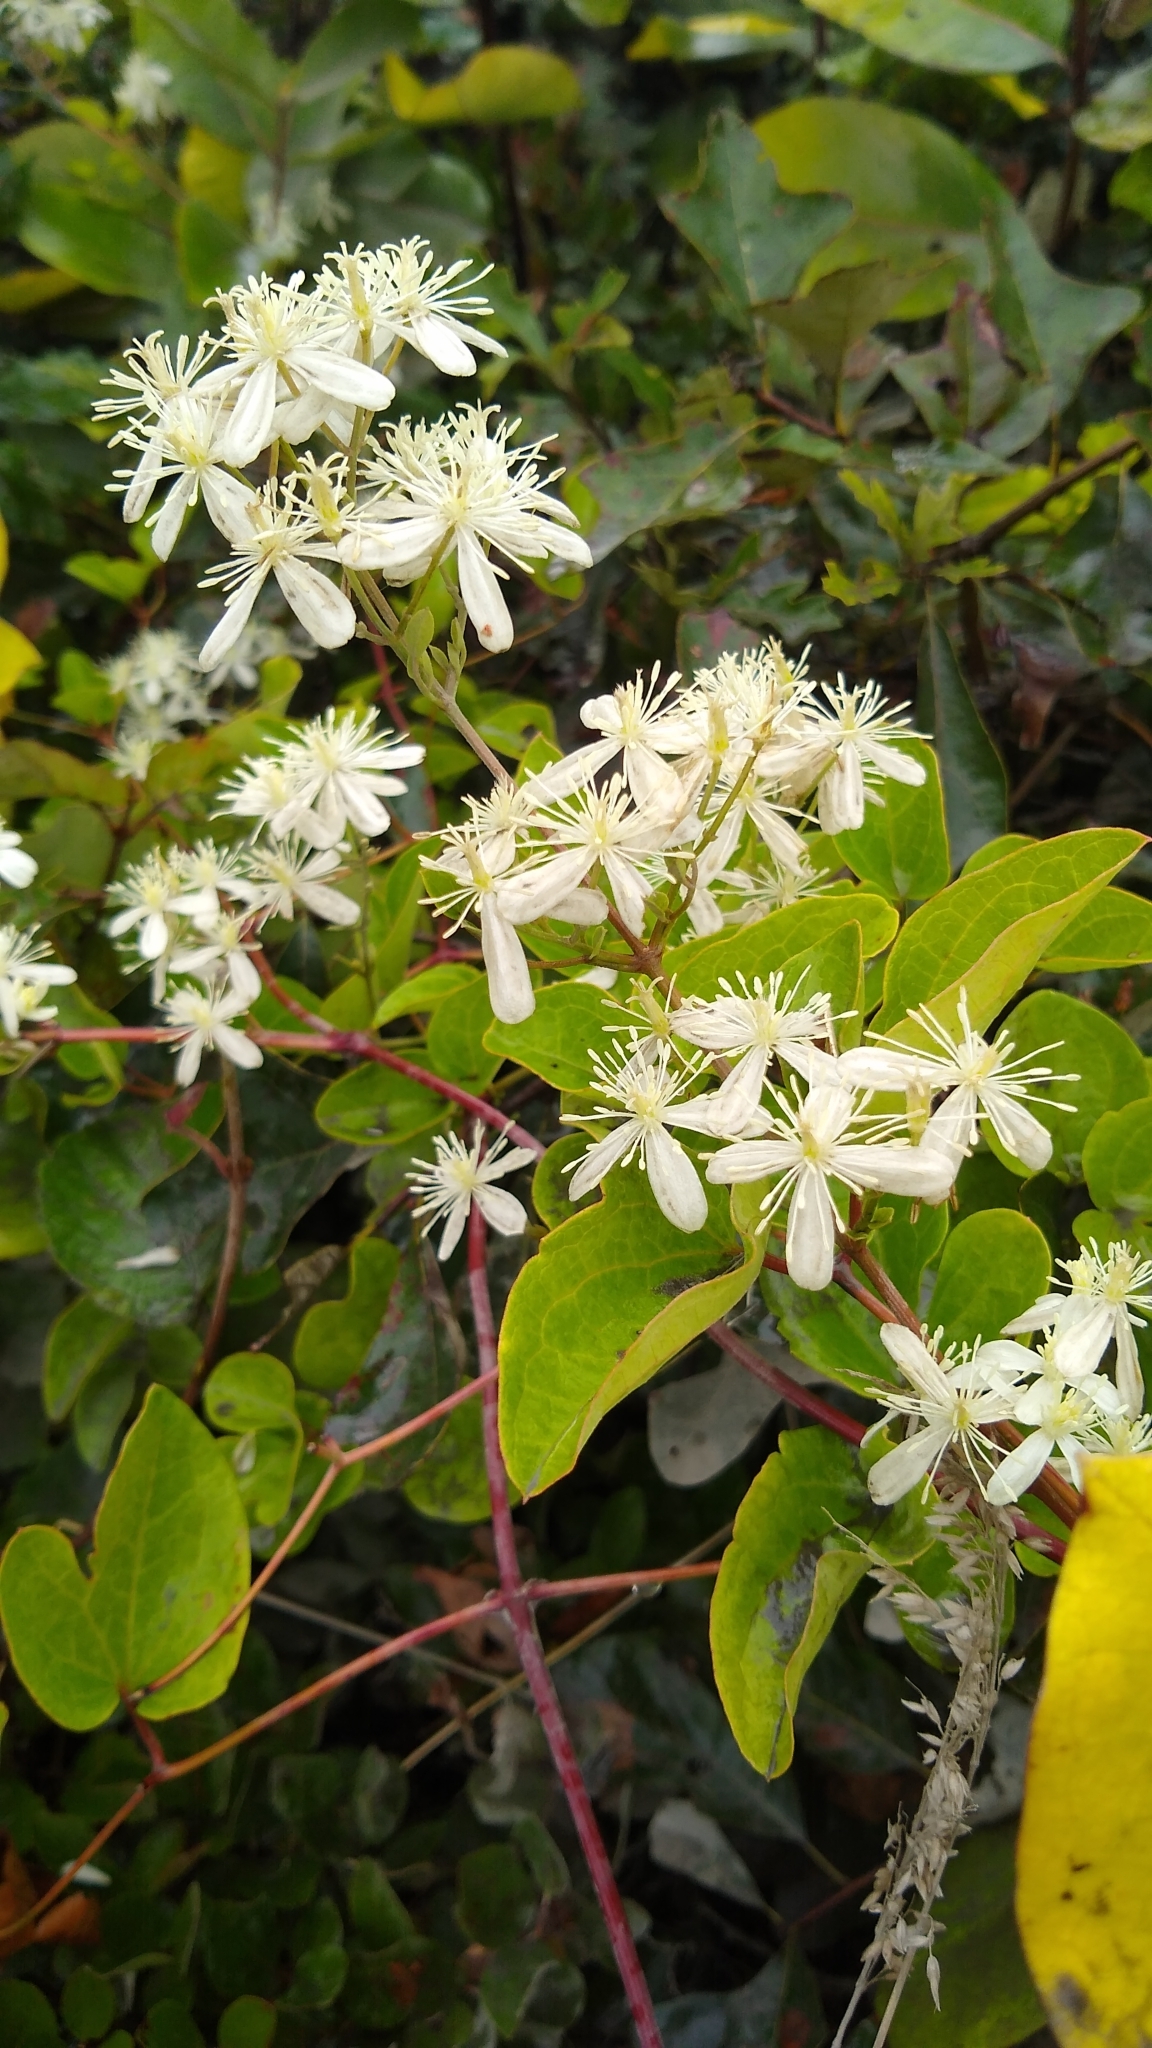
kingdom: Plantae
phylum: Tracheophyta
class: Magnoliopsida
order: Ranunculales
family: Ranunculaceae
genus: Clematis
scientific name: Clematis terniflora
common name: Sweet autumn clematis
